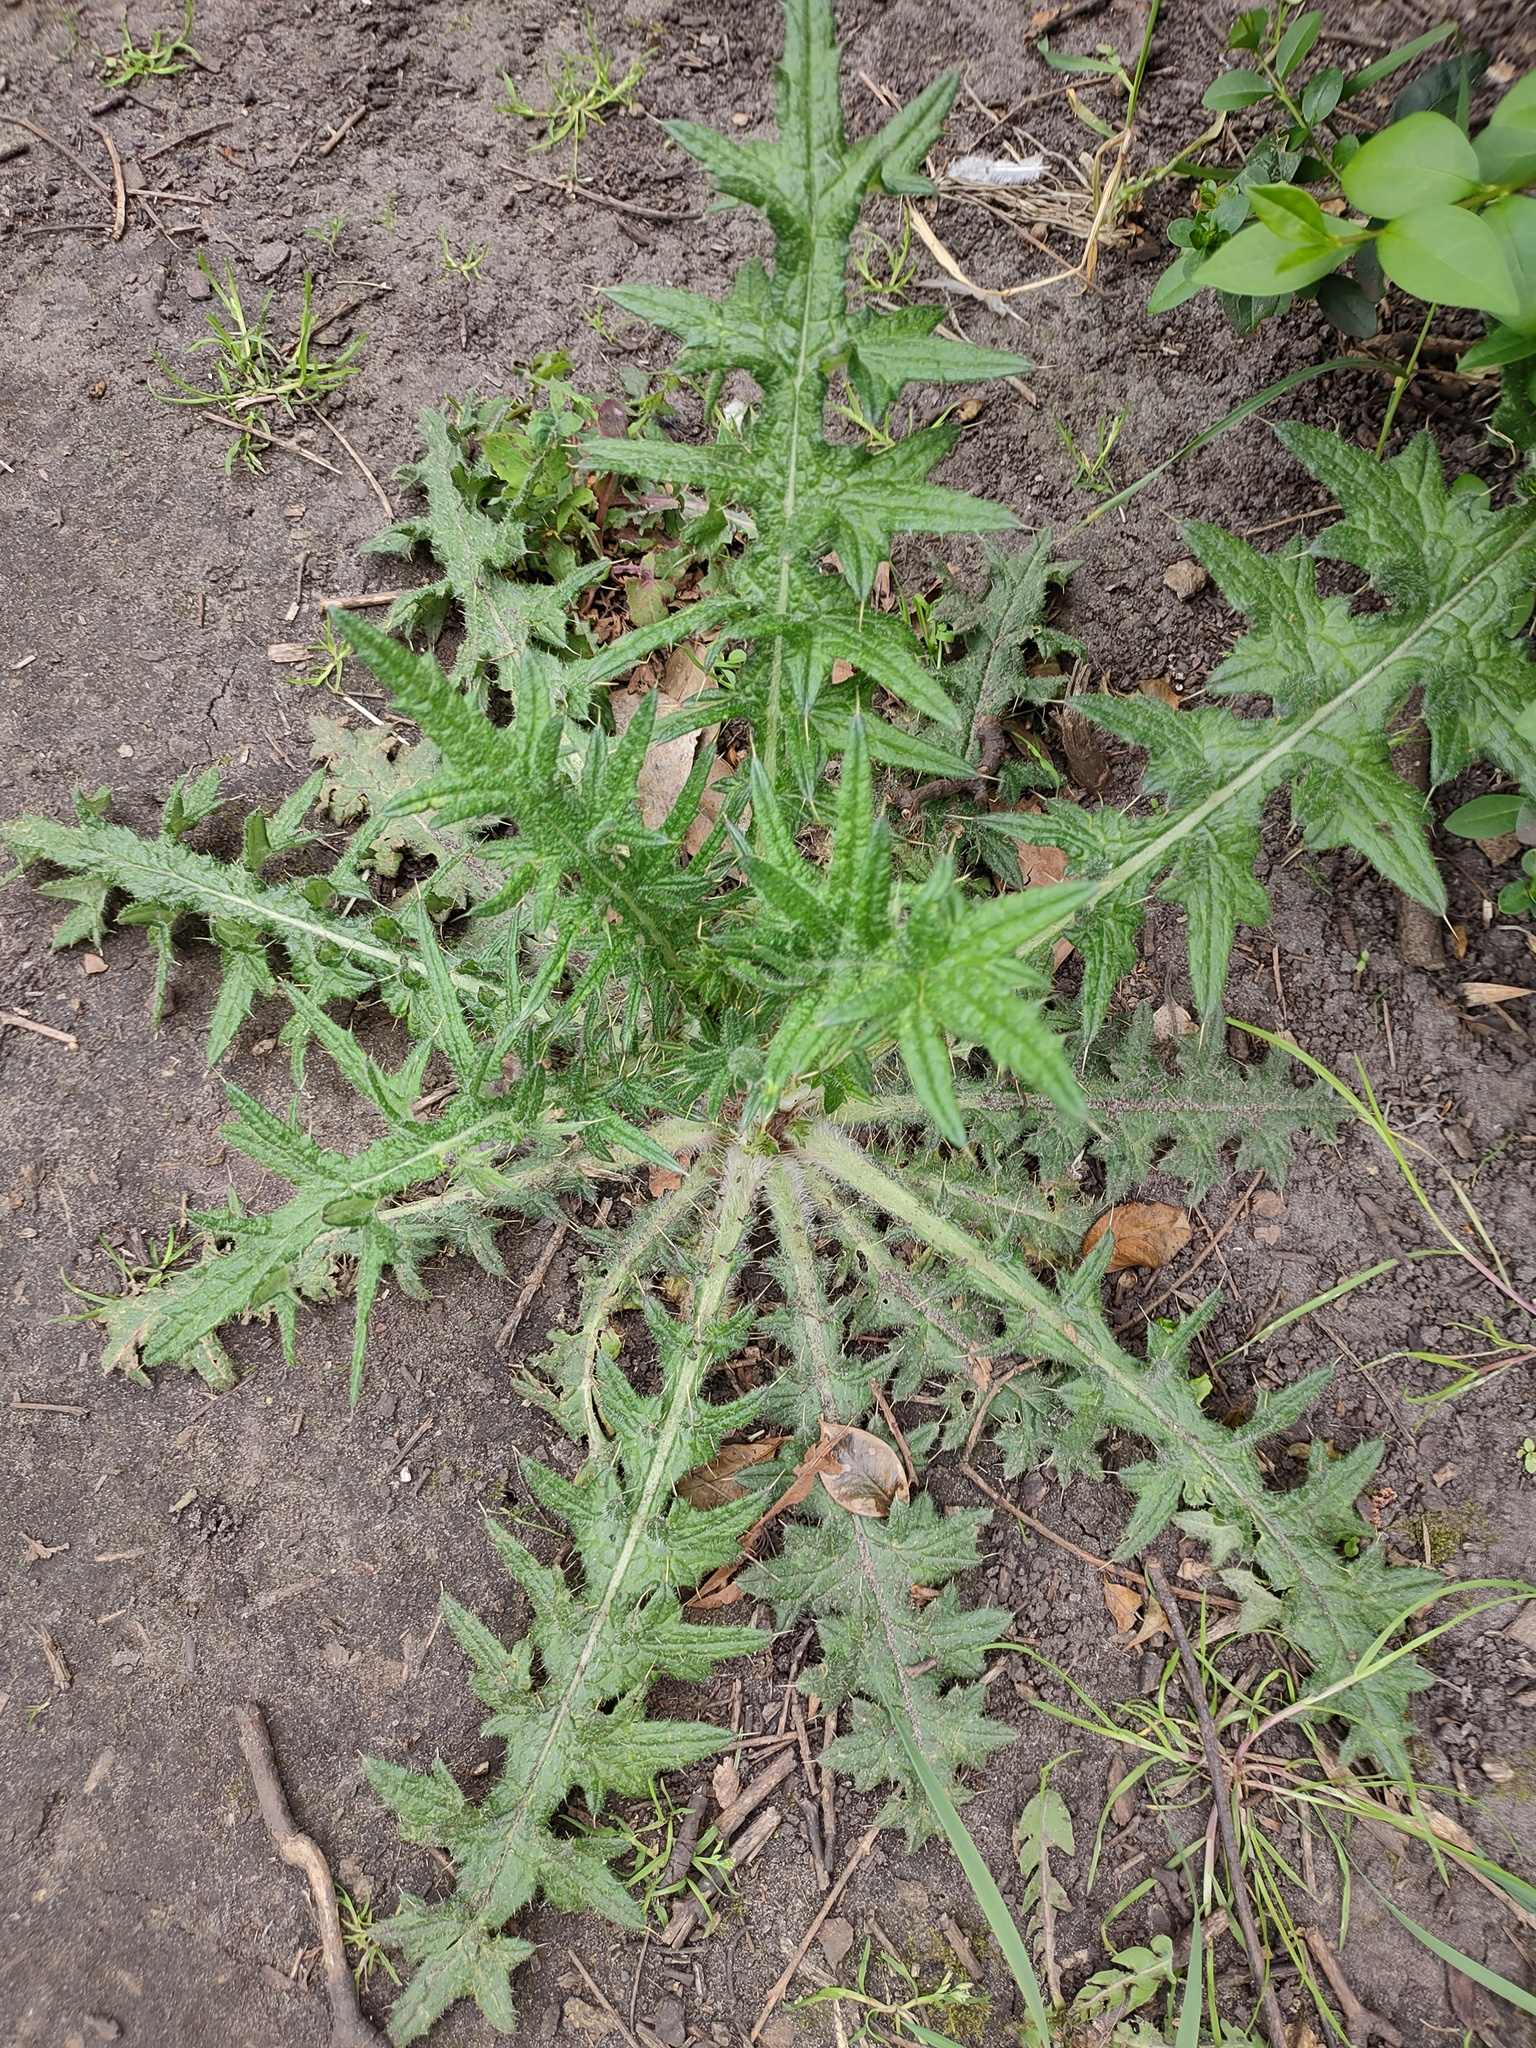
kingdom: Plantae
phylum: Tracheophyta
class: Magnoliopsida
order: Asterales
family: Asteraceae
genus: Cirsium
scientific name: Cirsium vulgare
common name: Bull thistle
